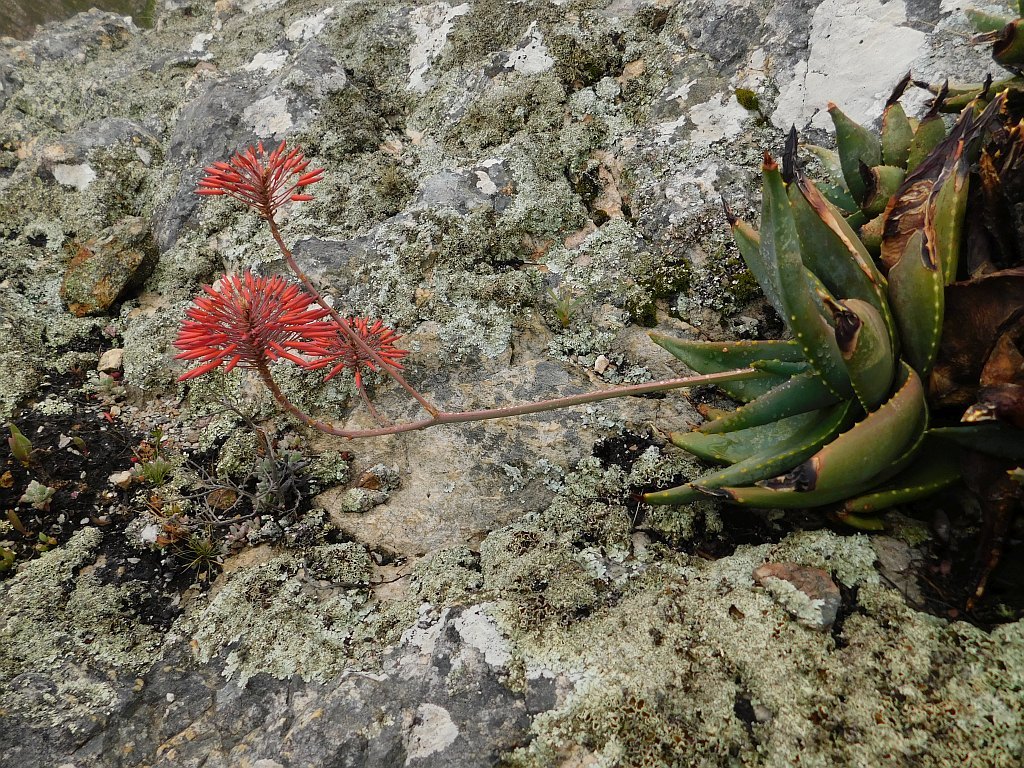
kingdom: Plantae
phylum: Tracheophyta
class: Liliopsida
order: Asparagales
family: Asphodelaceae
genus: Aloe
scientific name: Aloe perfoliata
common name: Mitra aloe
